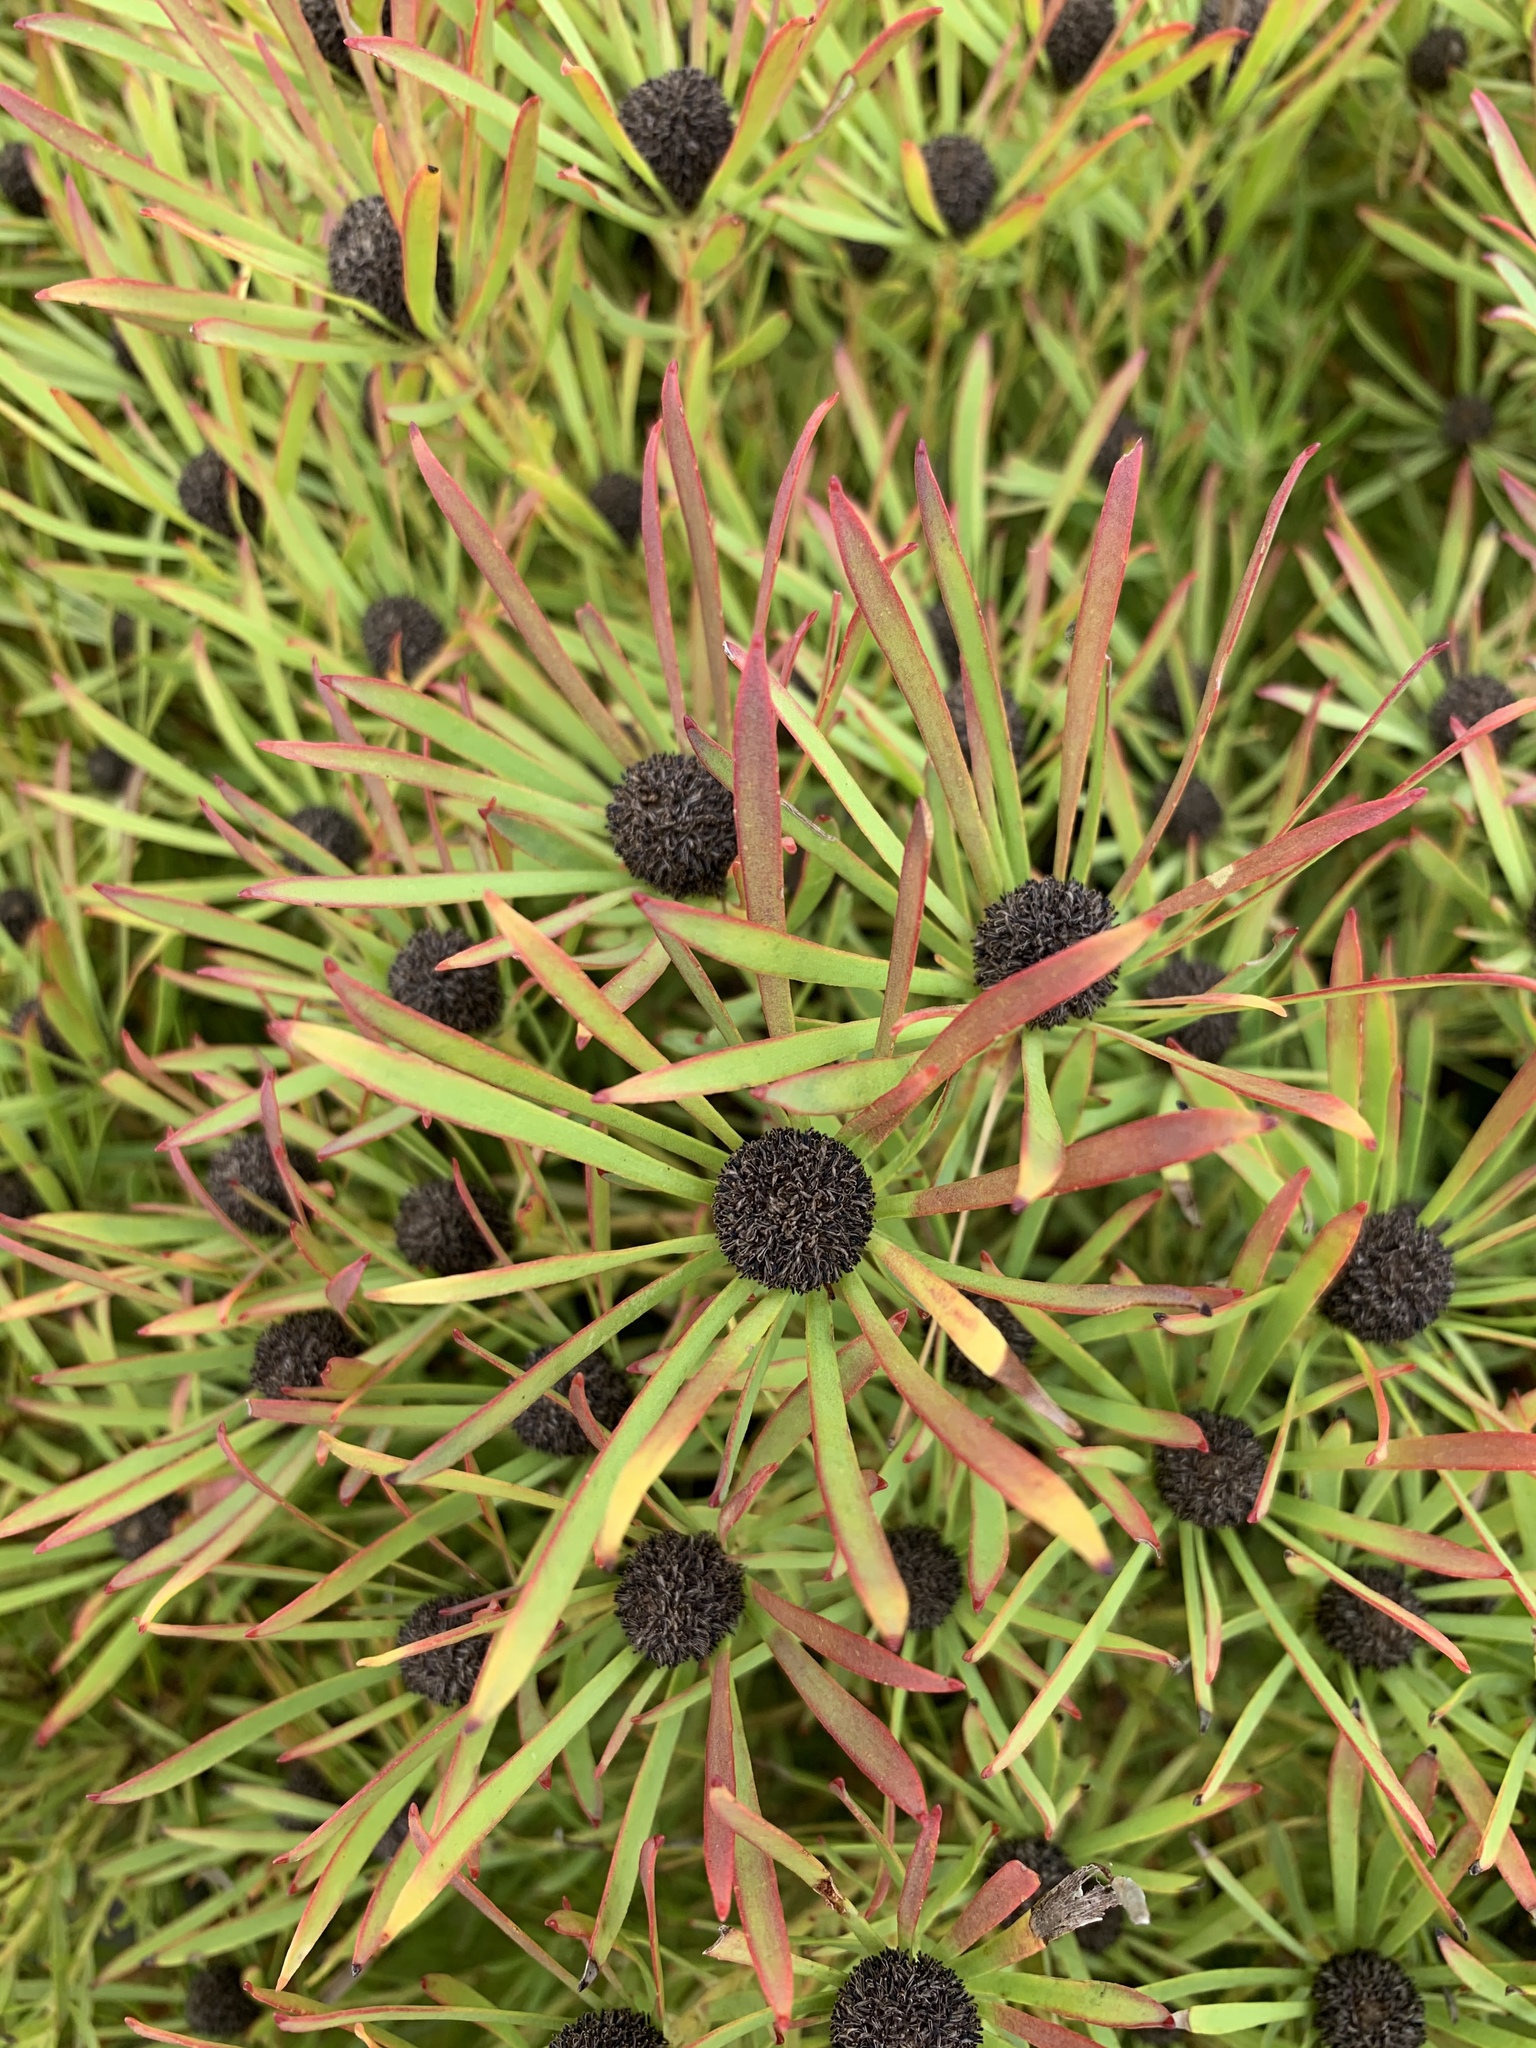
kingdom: Plantae
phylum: Tracheophyta
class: Magnoliopsida
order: Proteales
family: Proteaceae
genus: Leucadendron
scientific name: Leucadendron salignum
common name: Common sunshine conebush
